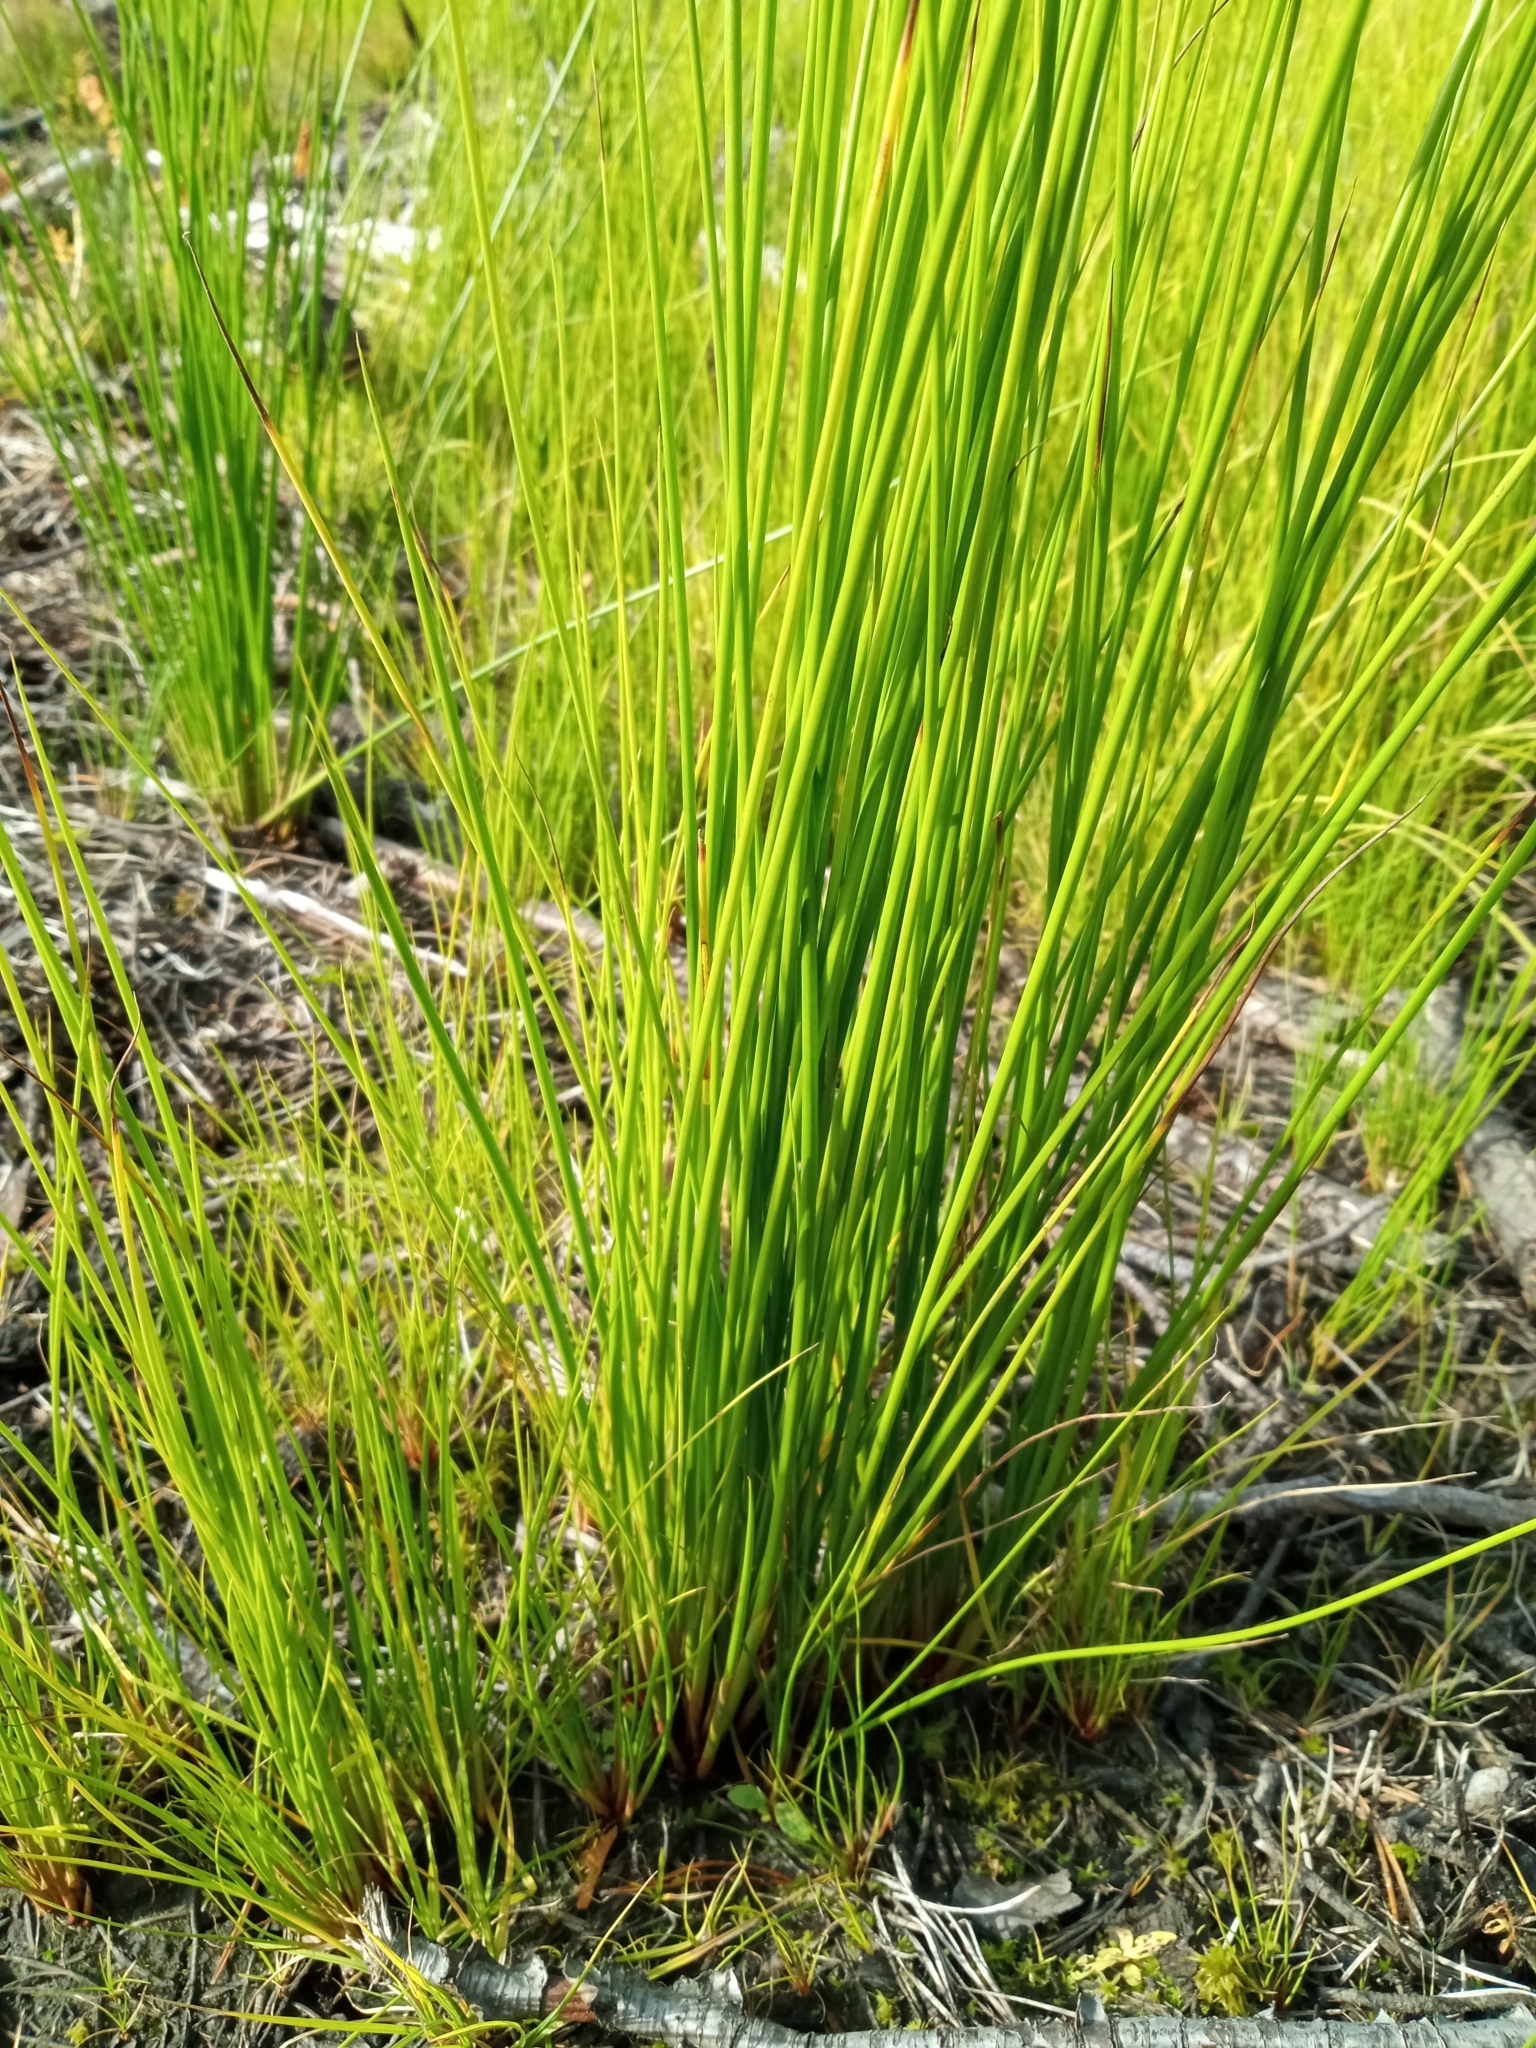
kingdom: Plantae
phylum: Tracheophyta
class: Liliopsida
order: Poales
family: Juncaceae
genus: Juncus
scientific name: Juncus effusus
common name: Soft rush
